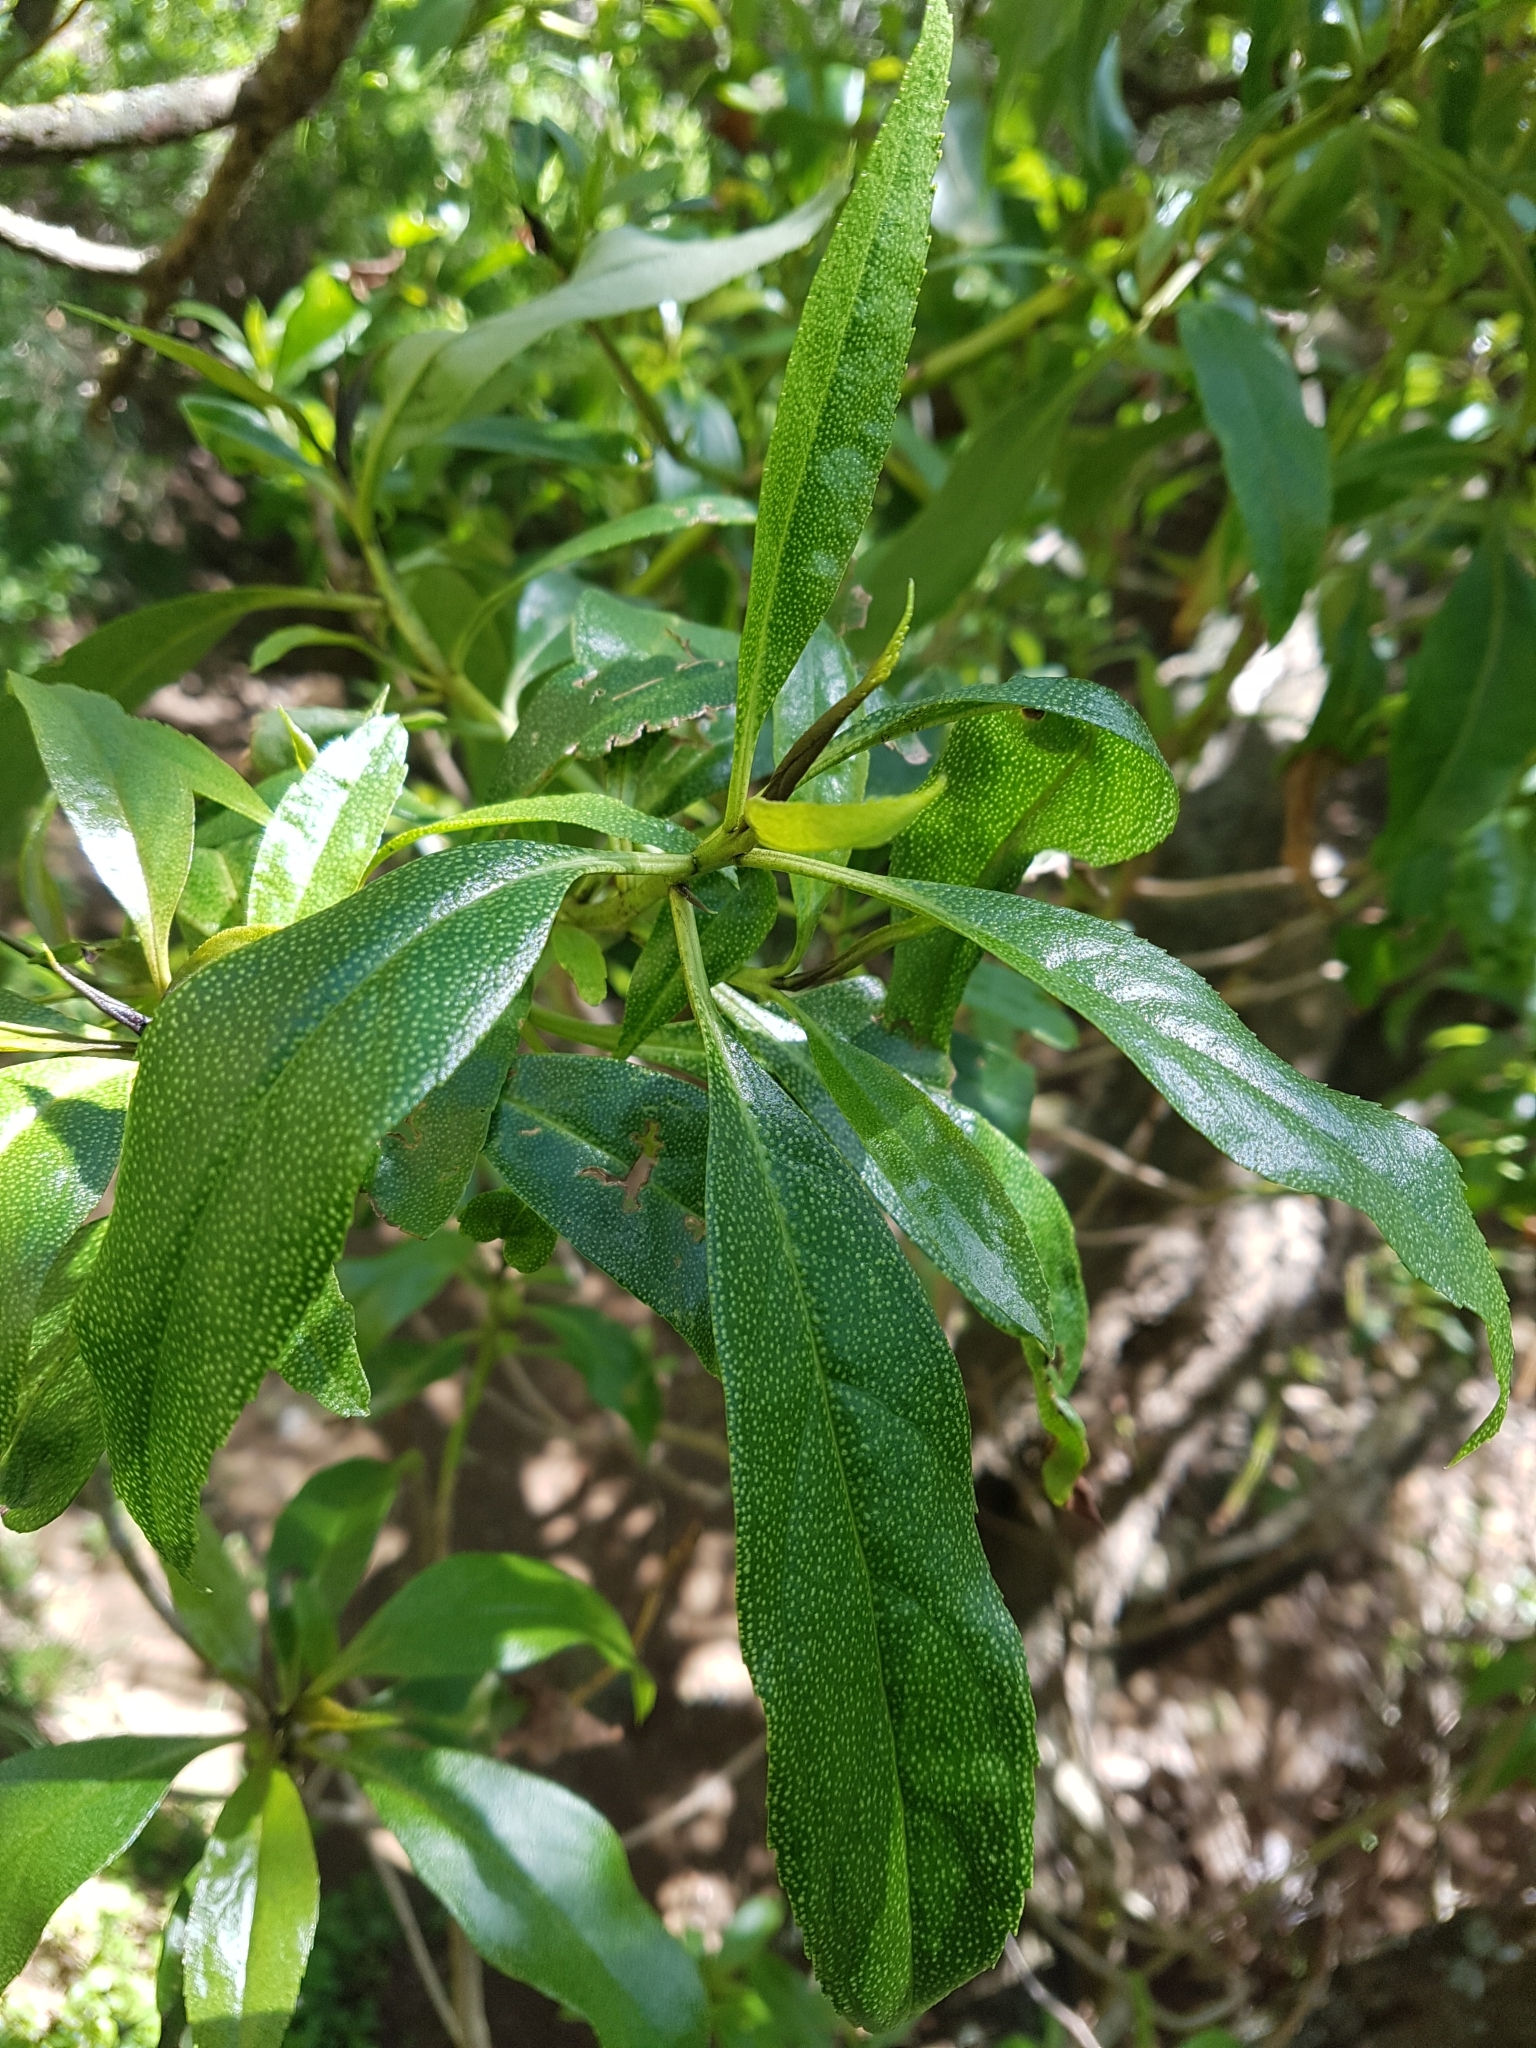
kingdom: Plantae
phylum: Tracheophyta
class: Magnoliopsida
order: Lamiales
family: Scrophulariaceae
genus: Myoporum
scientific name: Myoporum laetum
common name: Ngaio tree
